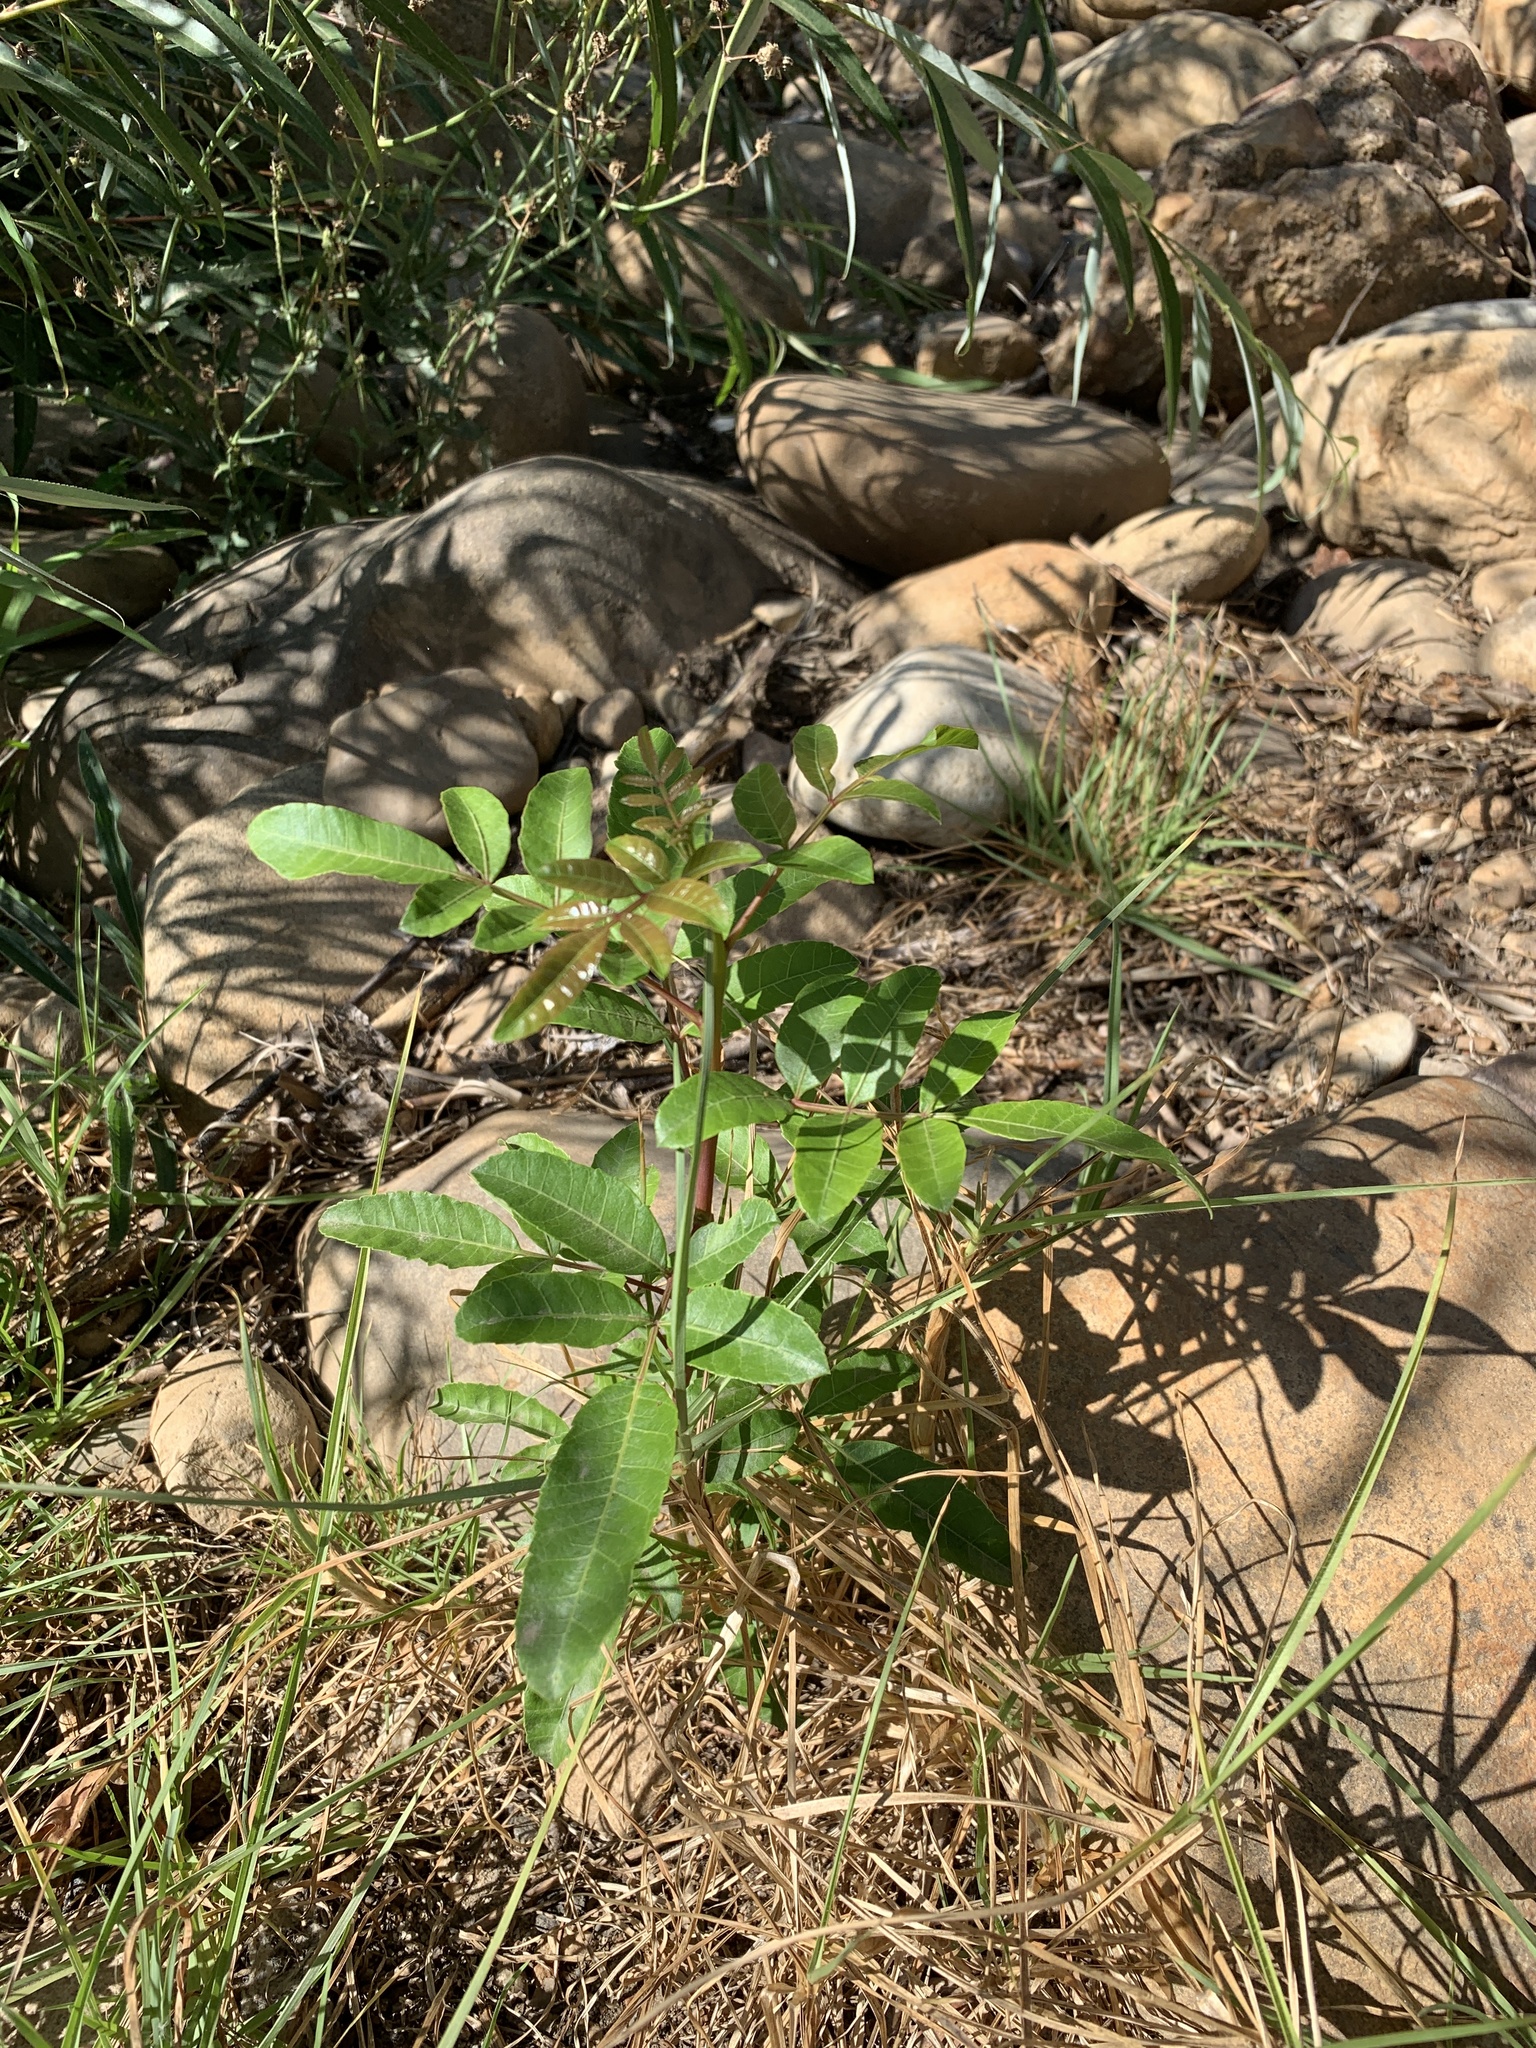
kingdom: Plantae
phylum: Tracheophyta
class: Magnoliopsida
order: Sapindales
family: Anacardiaceae
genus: Schinus
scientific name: Schinus terebinthifolia
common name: Brazilian peppertree
